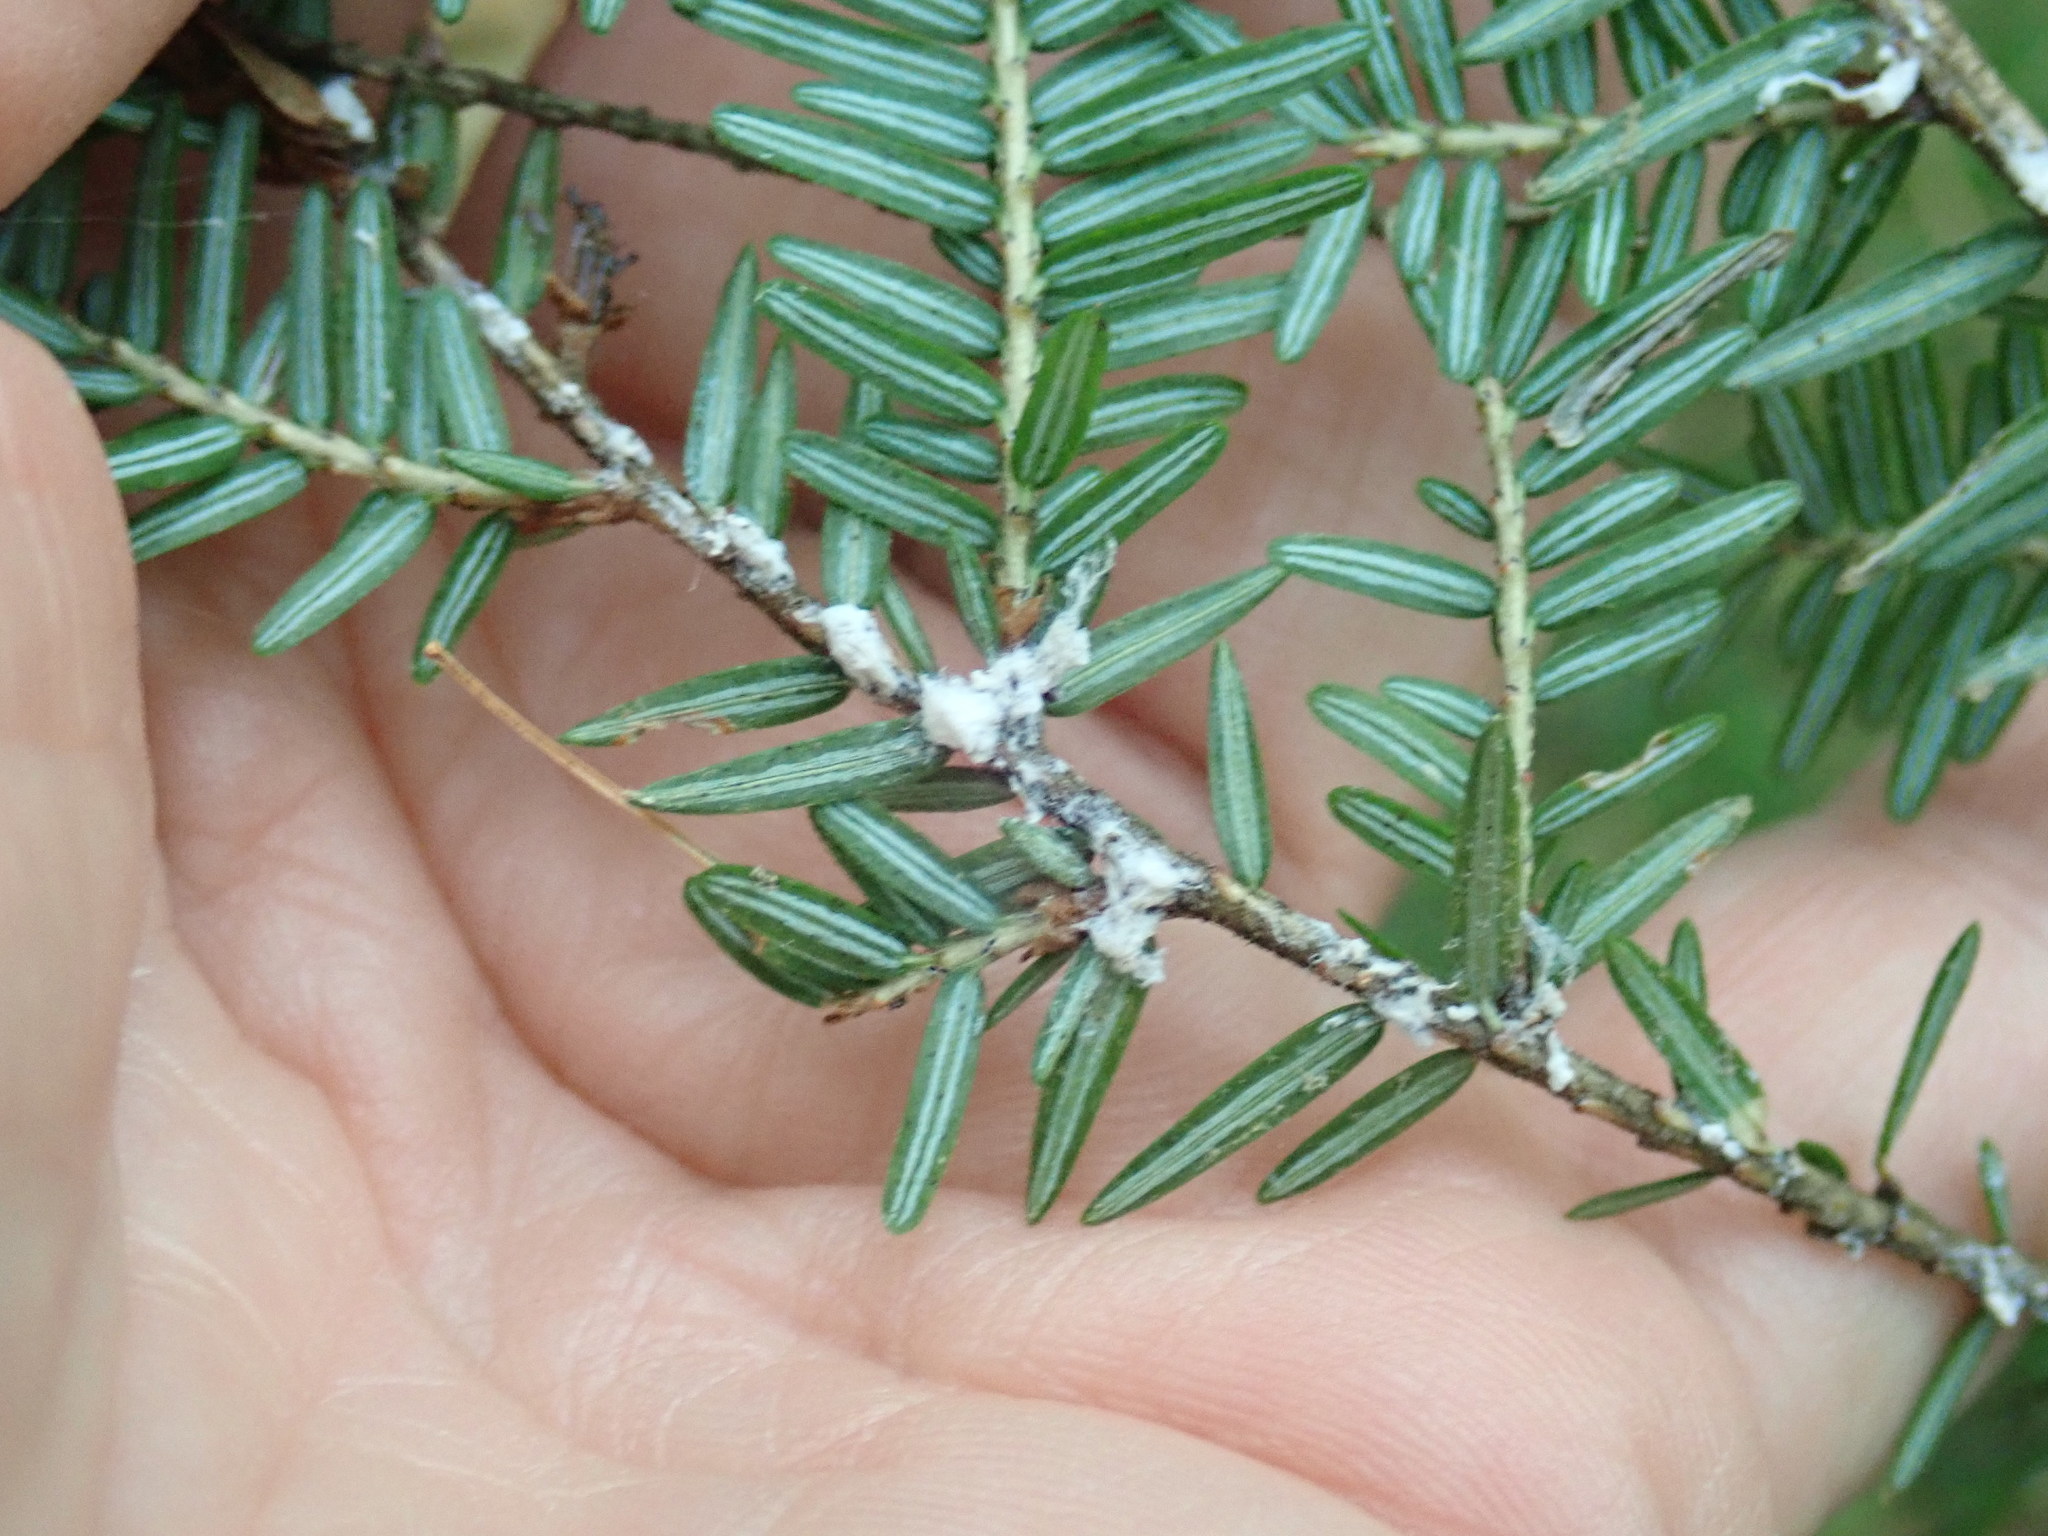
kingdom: Animalia
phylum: Arthropoda
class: Insecta
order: Hemiptera
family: Adelgidae
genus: Adelges
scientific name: Adelges tsugae
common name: Hemlock woolly adelgid
